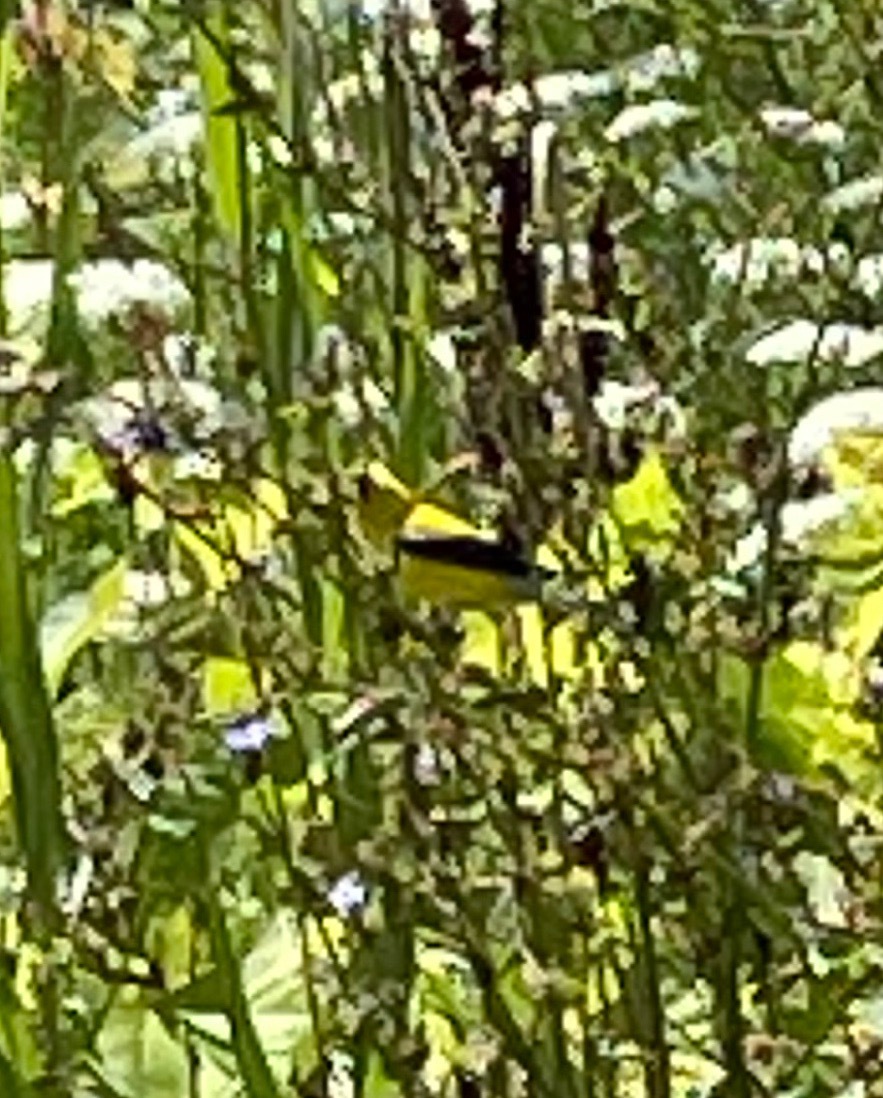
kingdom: Animalia
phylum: Chordata
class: Aves
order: Passeriformes
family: Fringillidae
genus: Spinus
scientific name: Spinus tristis
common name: American goldfinch
